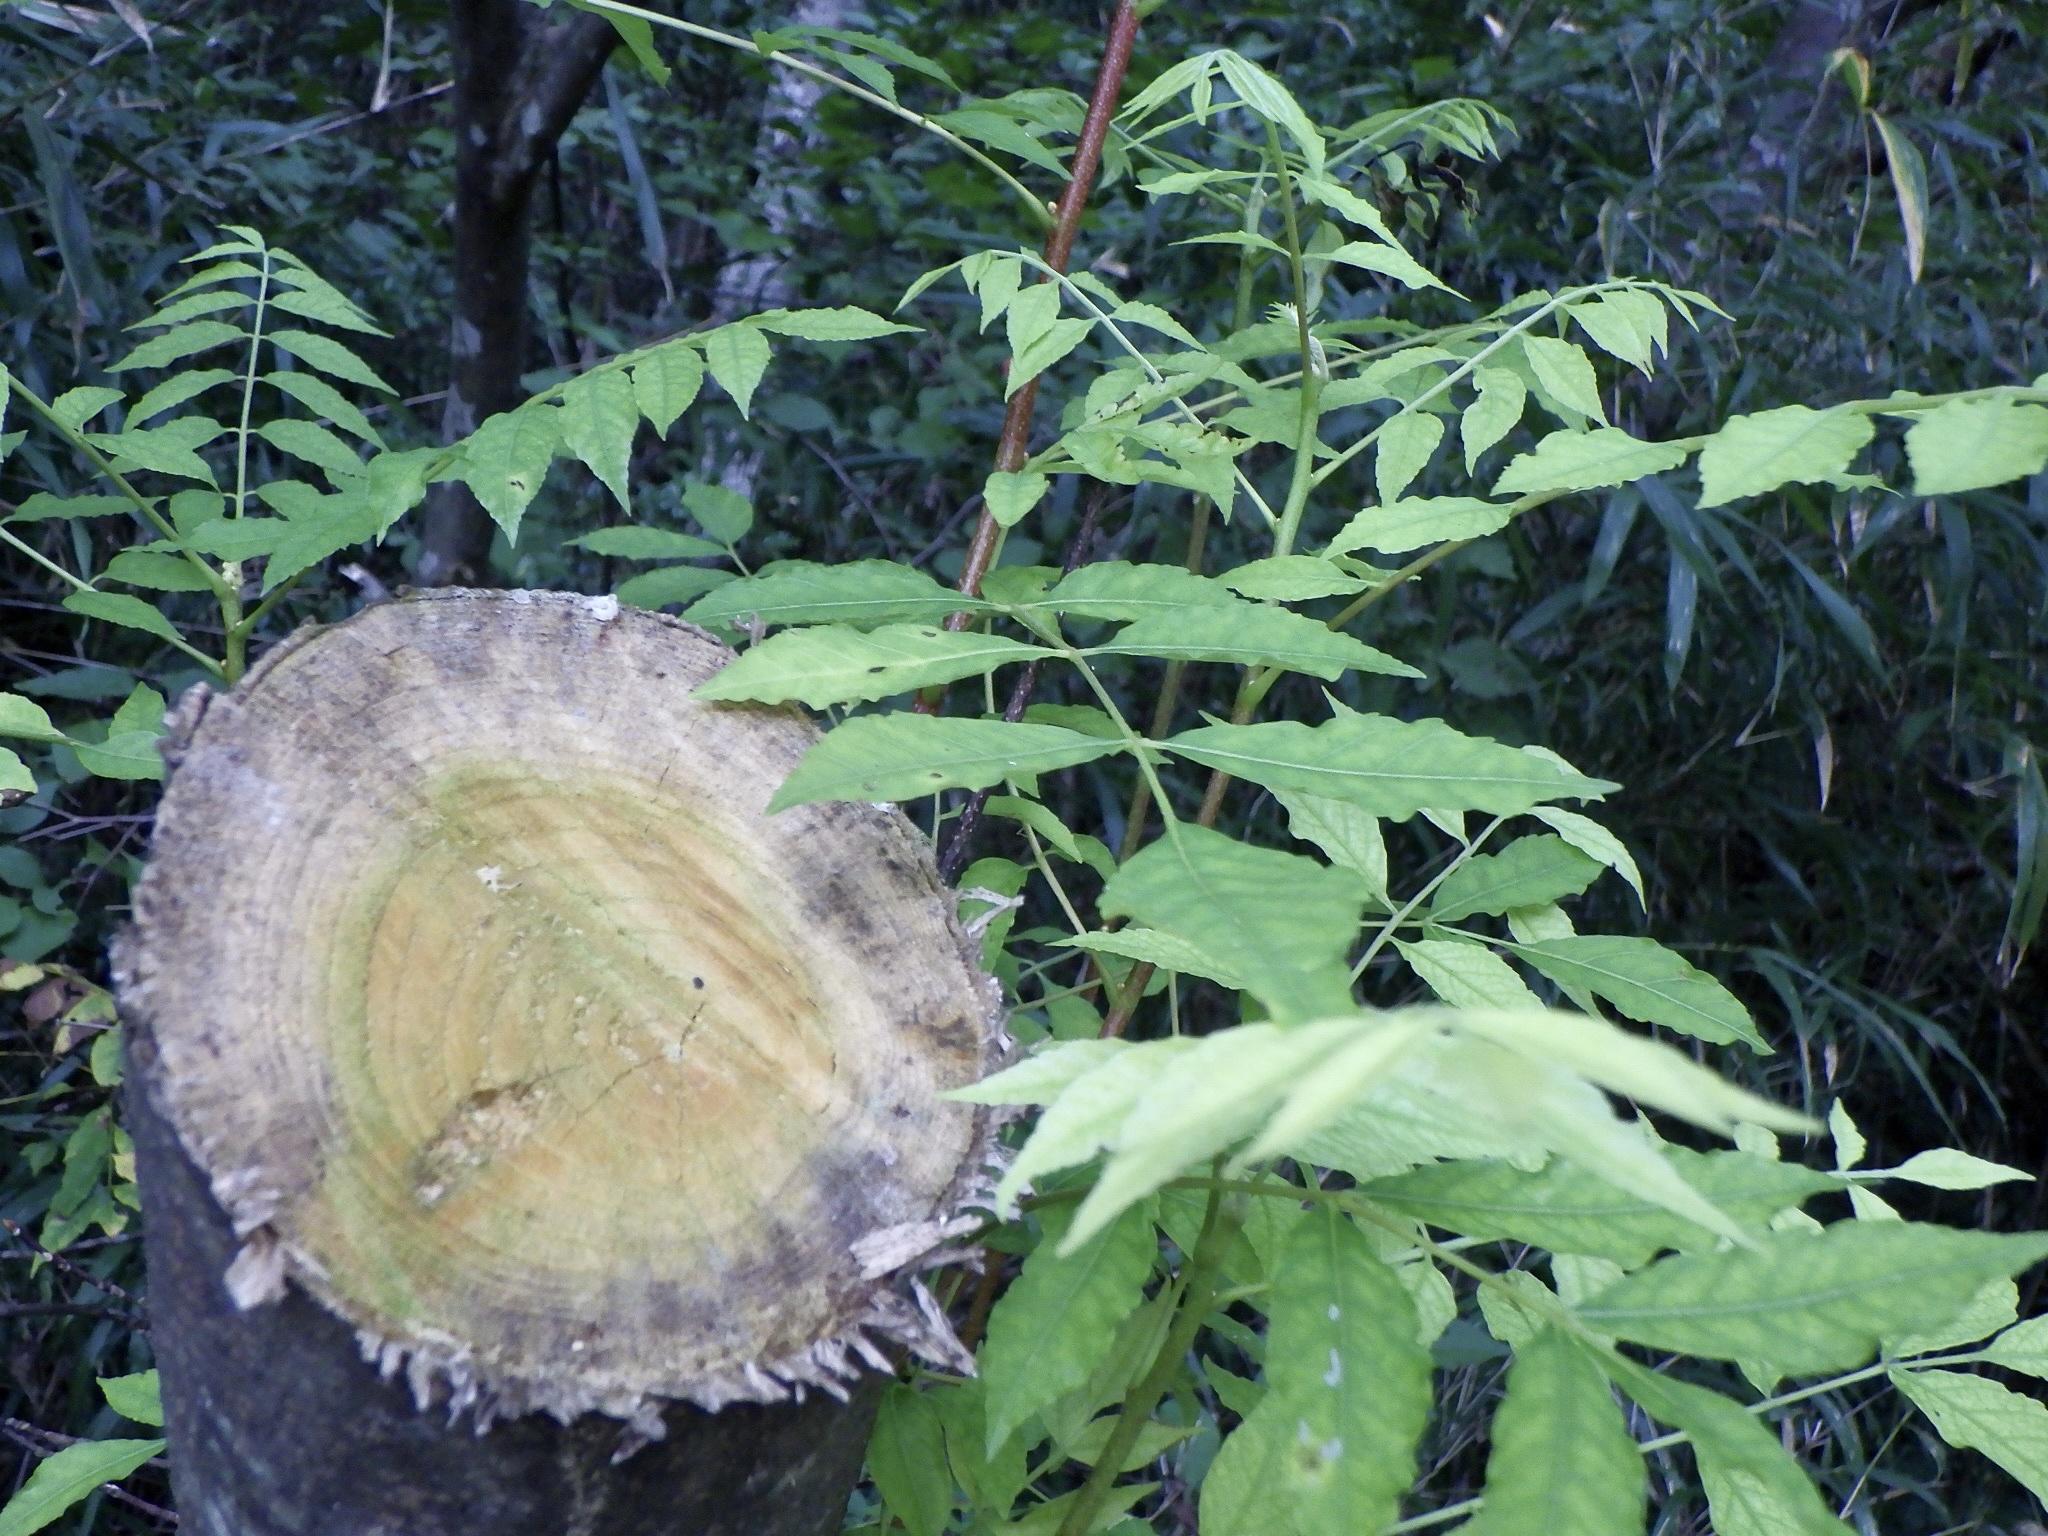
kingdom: Plantae
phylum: Tracheophyta
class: Magnoliopsida
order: Sapindales
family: Simaroubaceae
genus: Picrasma
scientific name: Picrasma quassioides
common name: Shurni
